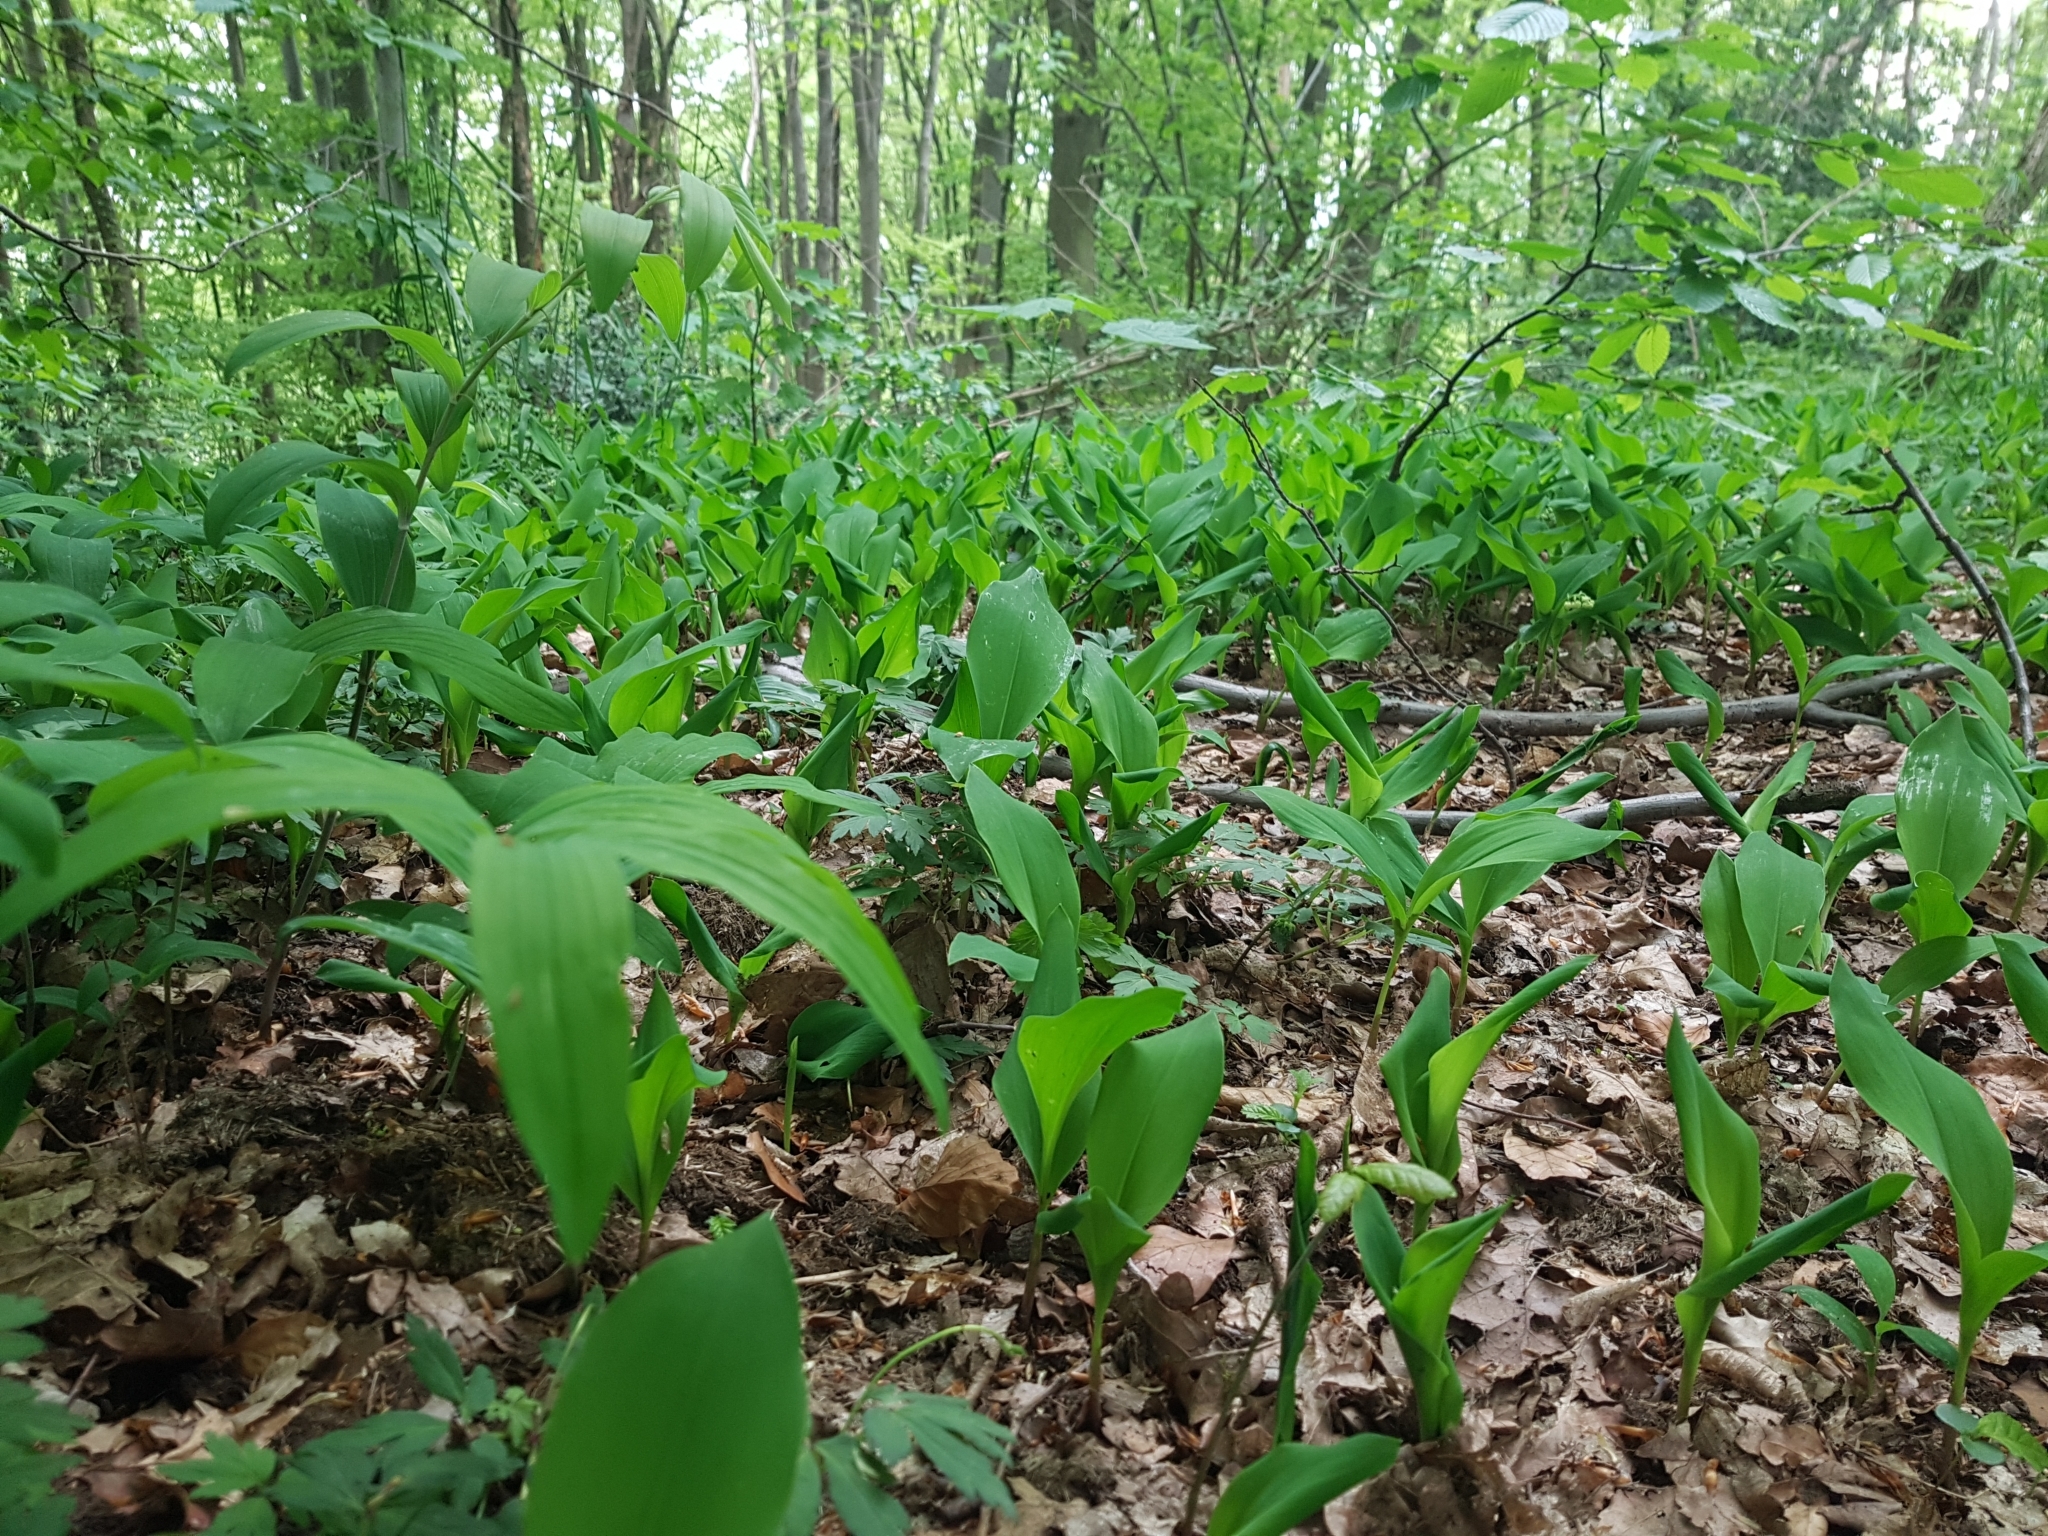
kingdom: Plantae
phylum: Tracheophyta
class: Liliopsida
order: Asparagales
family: Asparagaceae
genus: Convallaria
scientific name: Convallaria majalis
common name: Lily-of-the-valley
